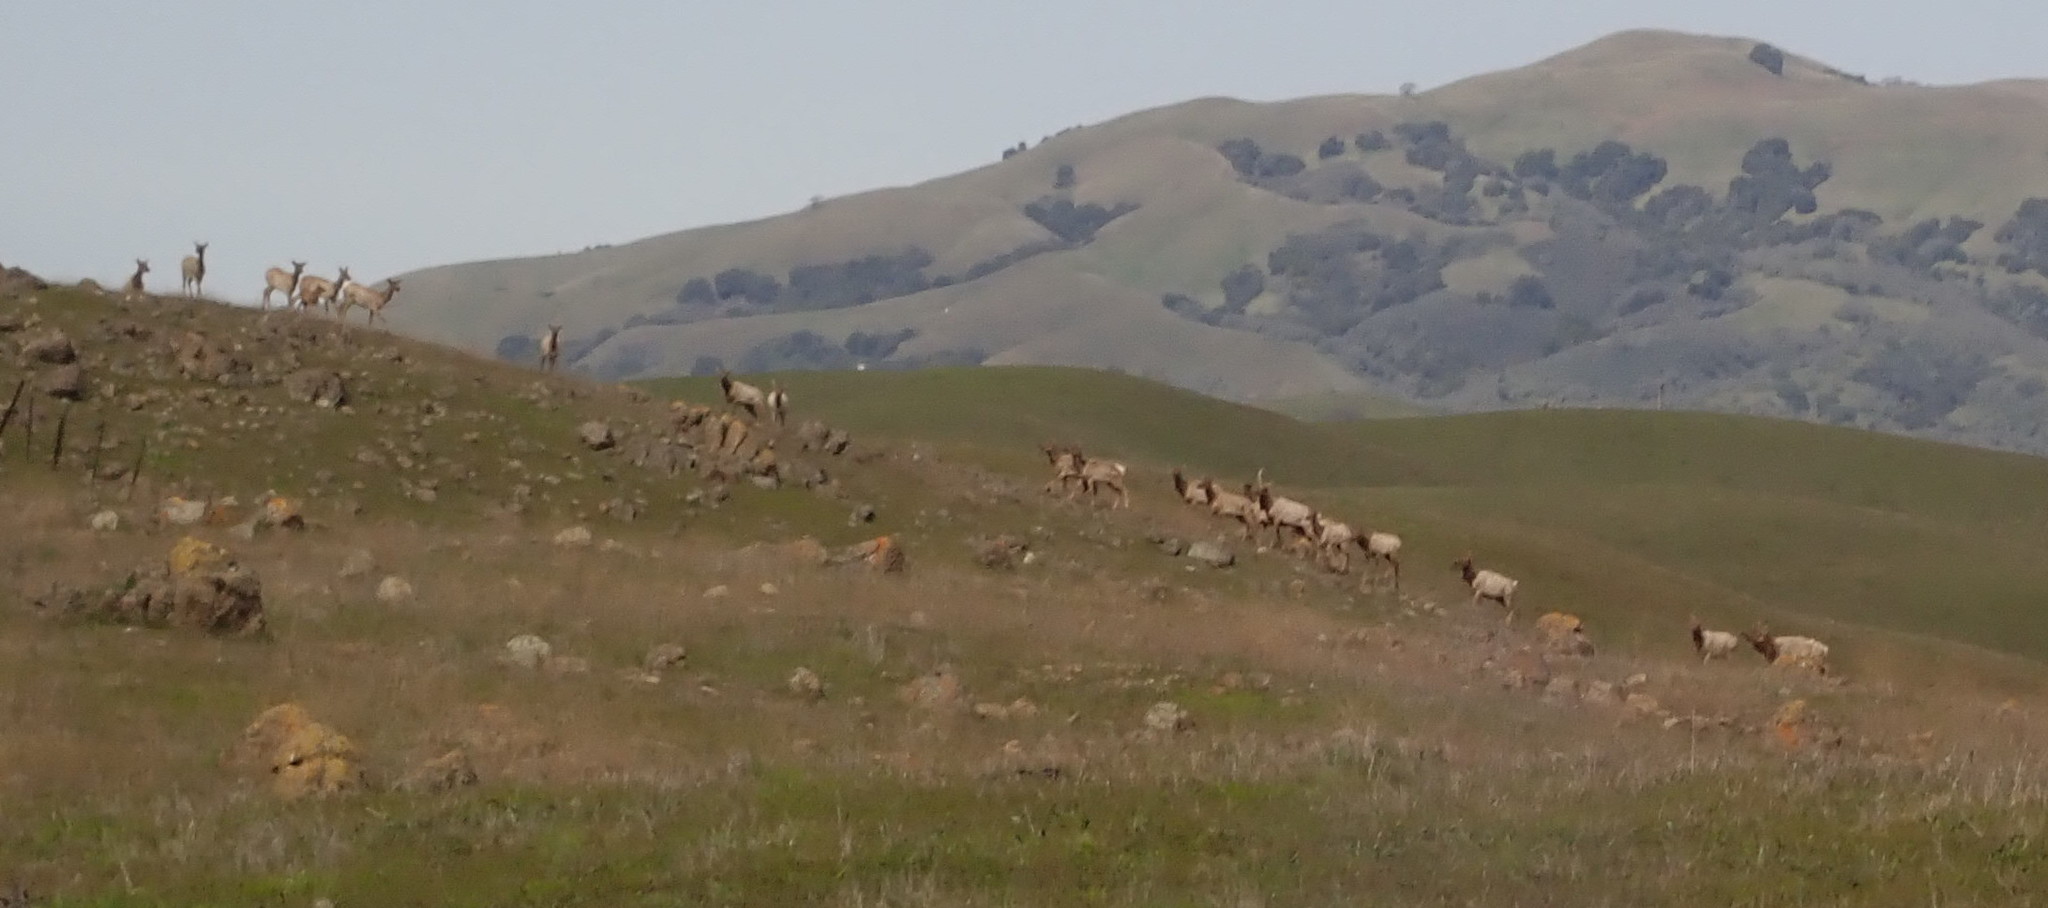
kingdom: Animalia
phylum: Chordata
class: Mammalia
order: Artiodactyla
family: Cervidae
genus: Cervus
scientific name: Cervus elaphus
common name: Red deer
